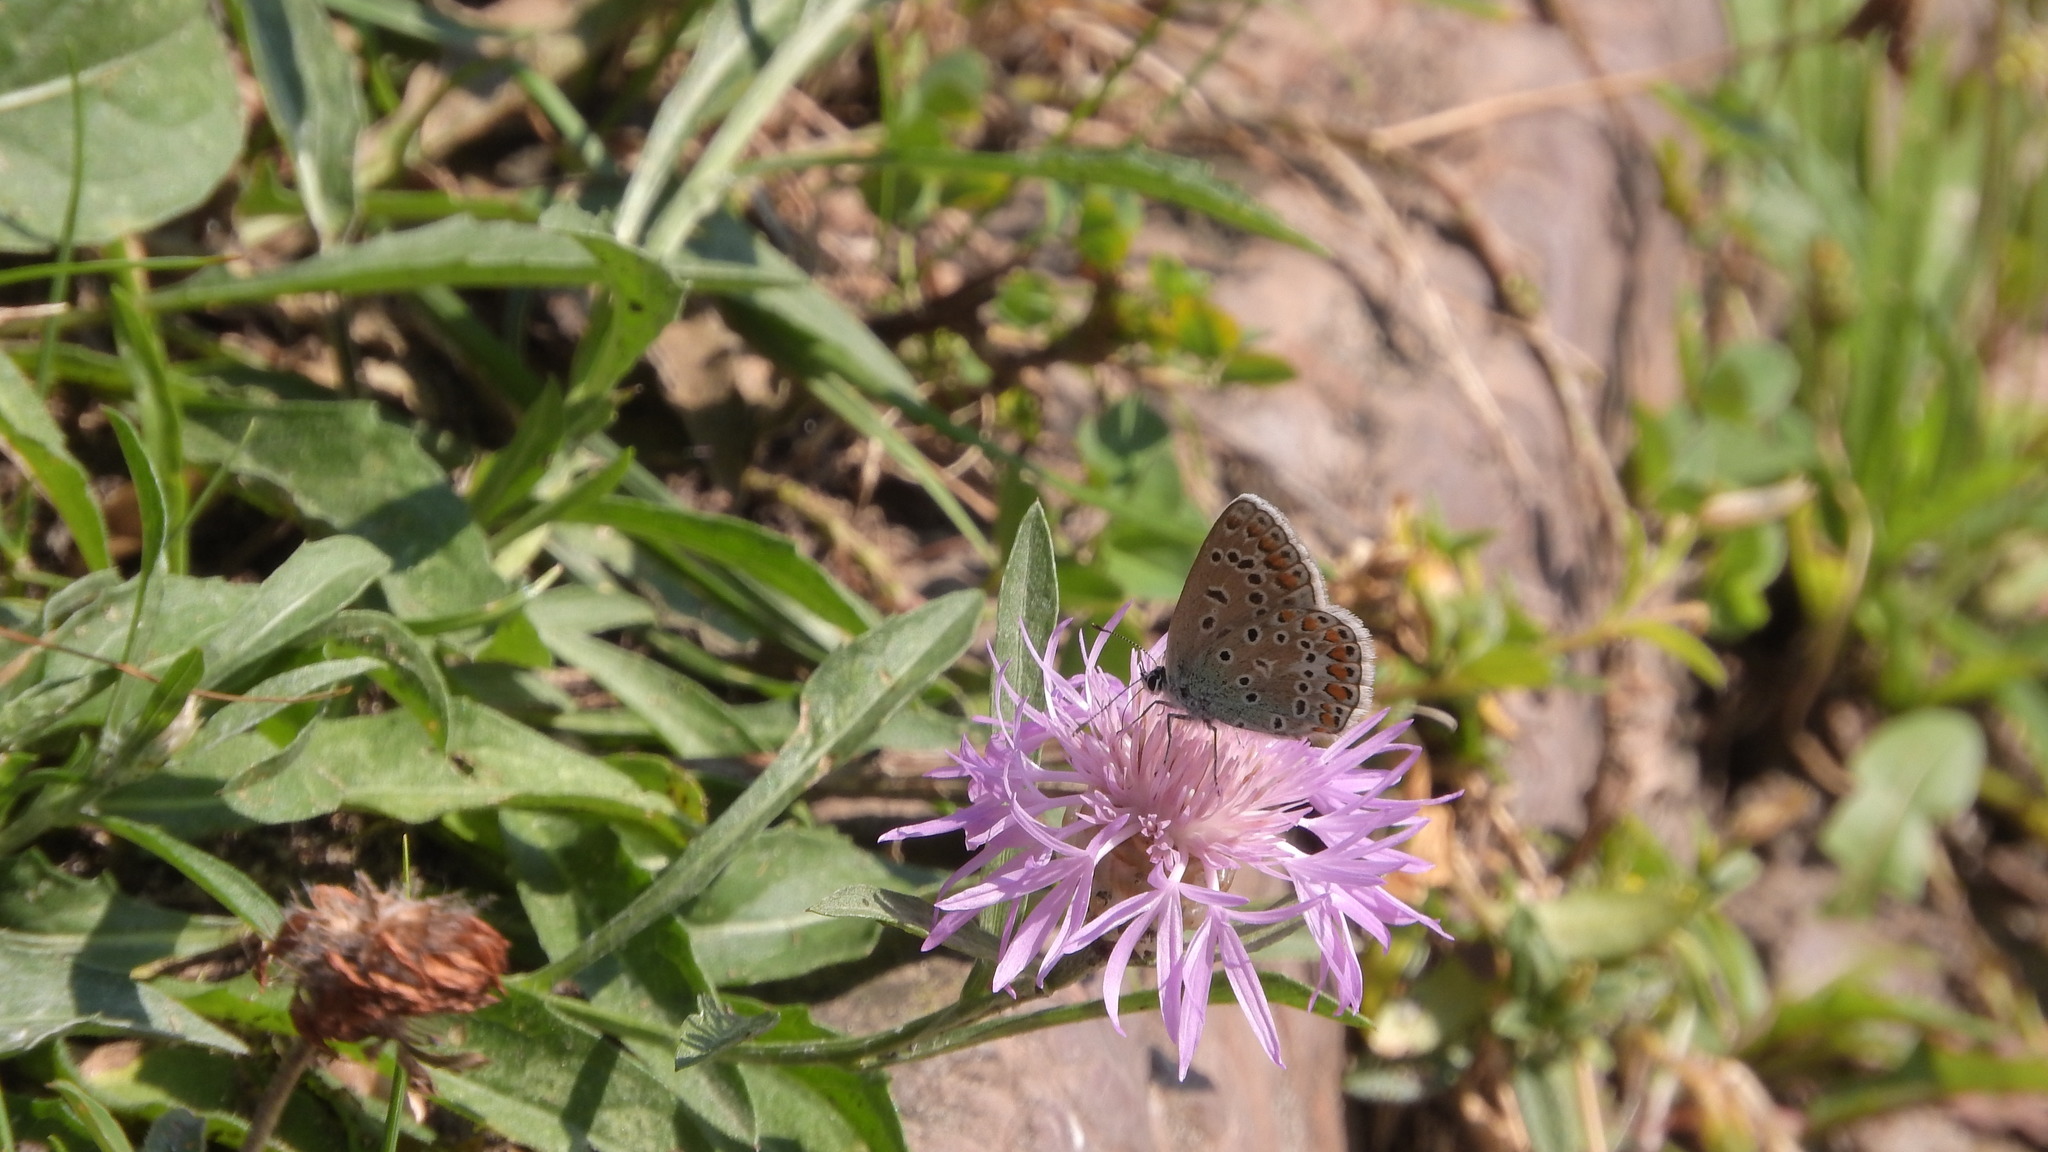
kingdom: Animalia
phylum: Arthropoda
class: Insecta
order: Lepidoptera
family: Lycaenidae
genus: Polyommatus
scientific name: Polyommatus icarus
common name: Common blue
